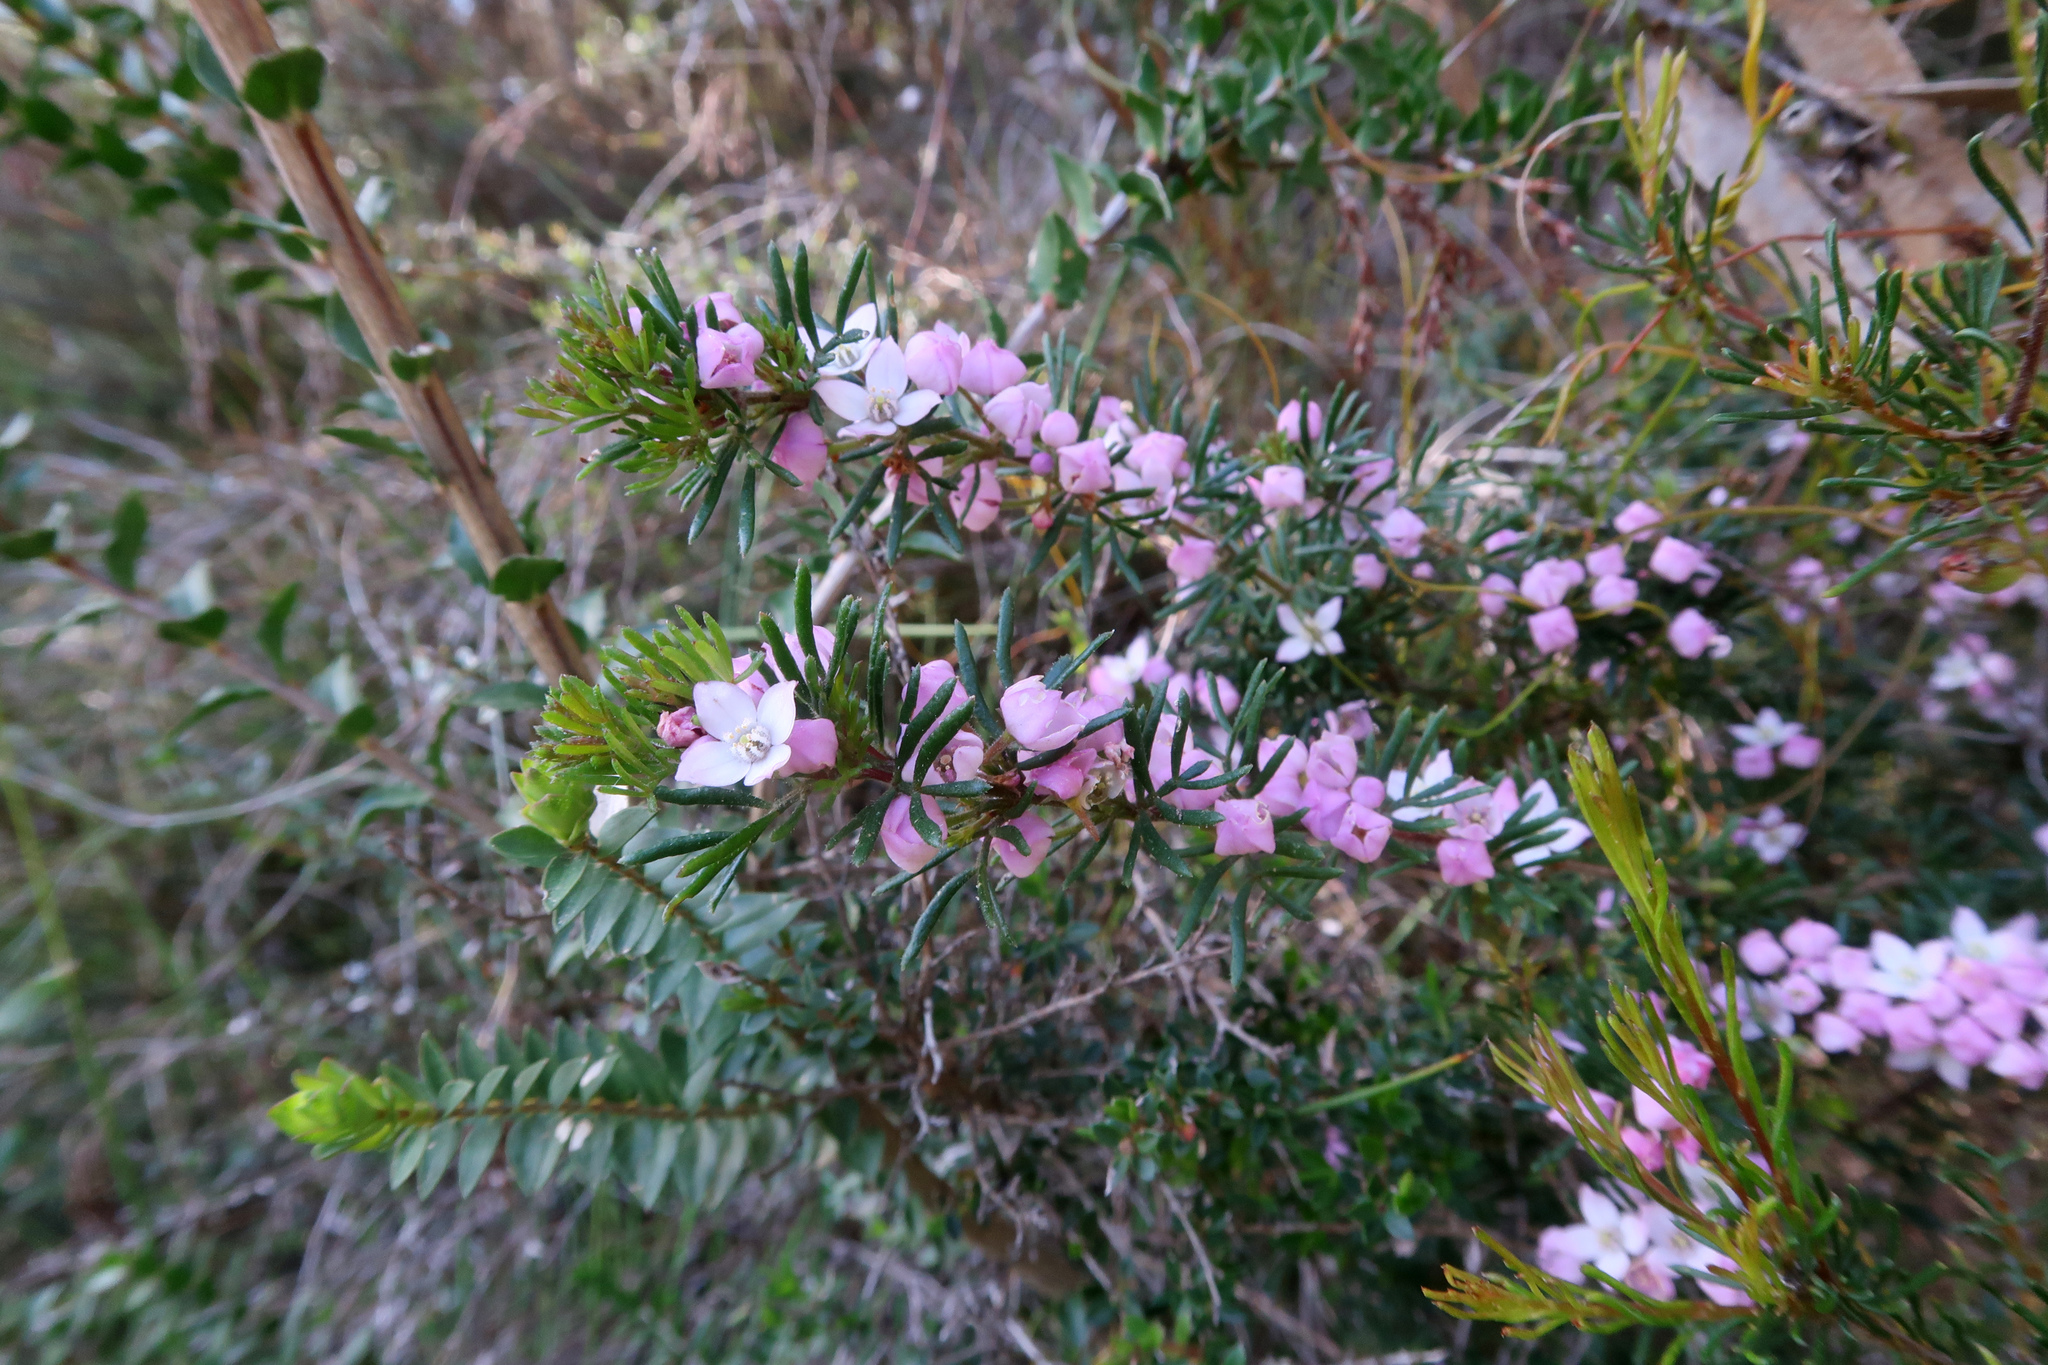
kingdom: Plantae
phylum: Tracheophyta
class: Magnoliopsida
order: Sapindales
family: Rutaceae
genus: Boronia
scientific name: Boronia pilosa
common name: Hairy boronia
